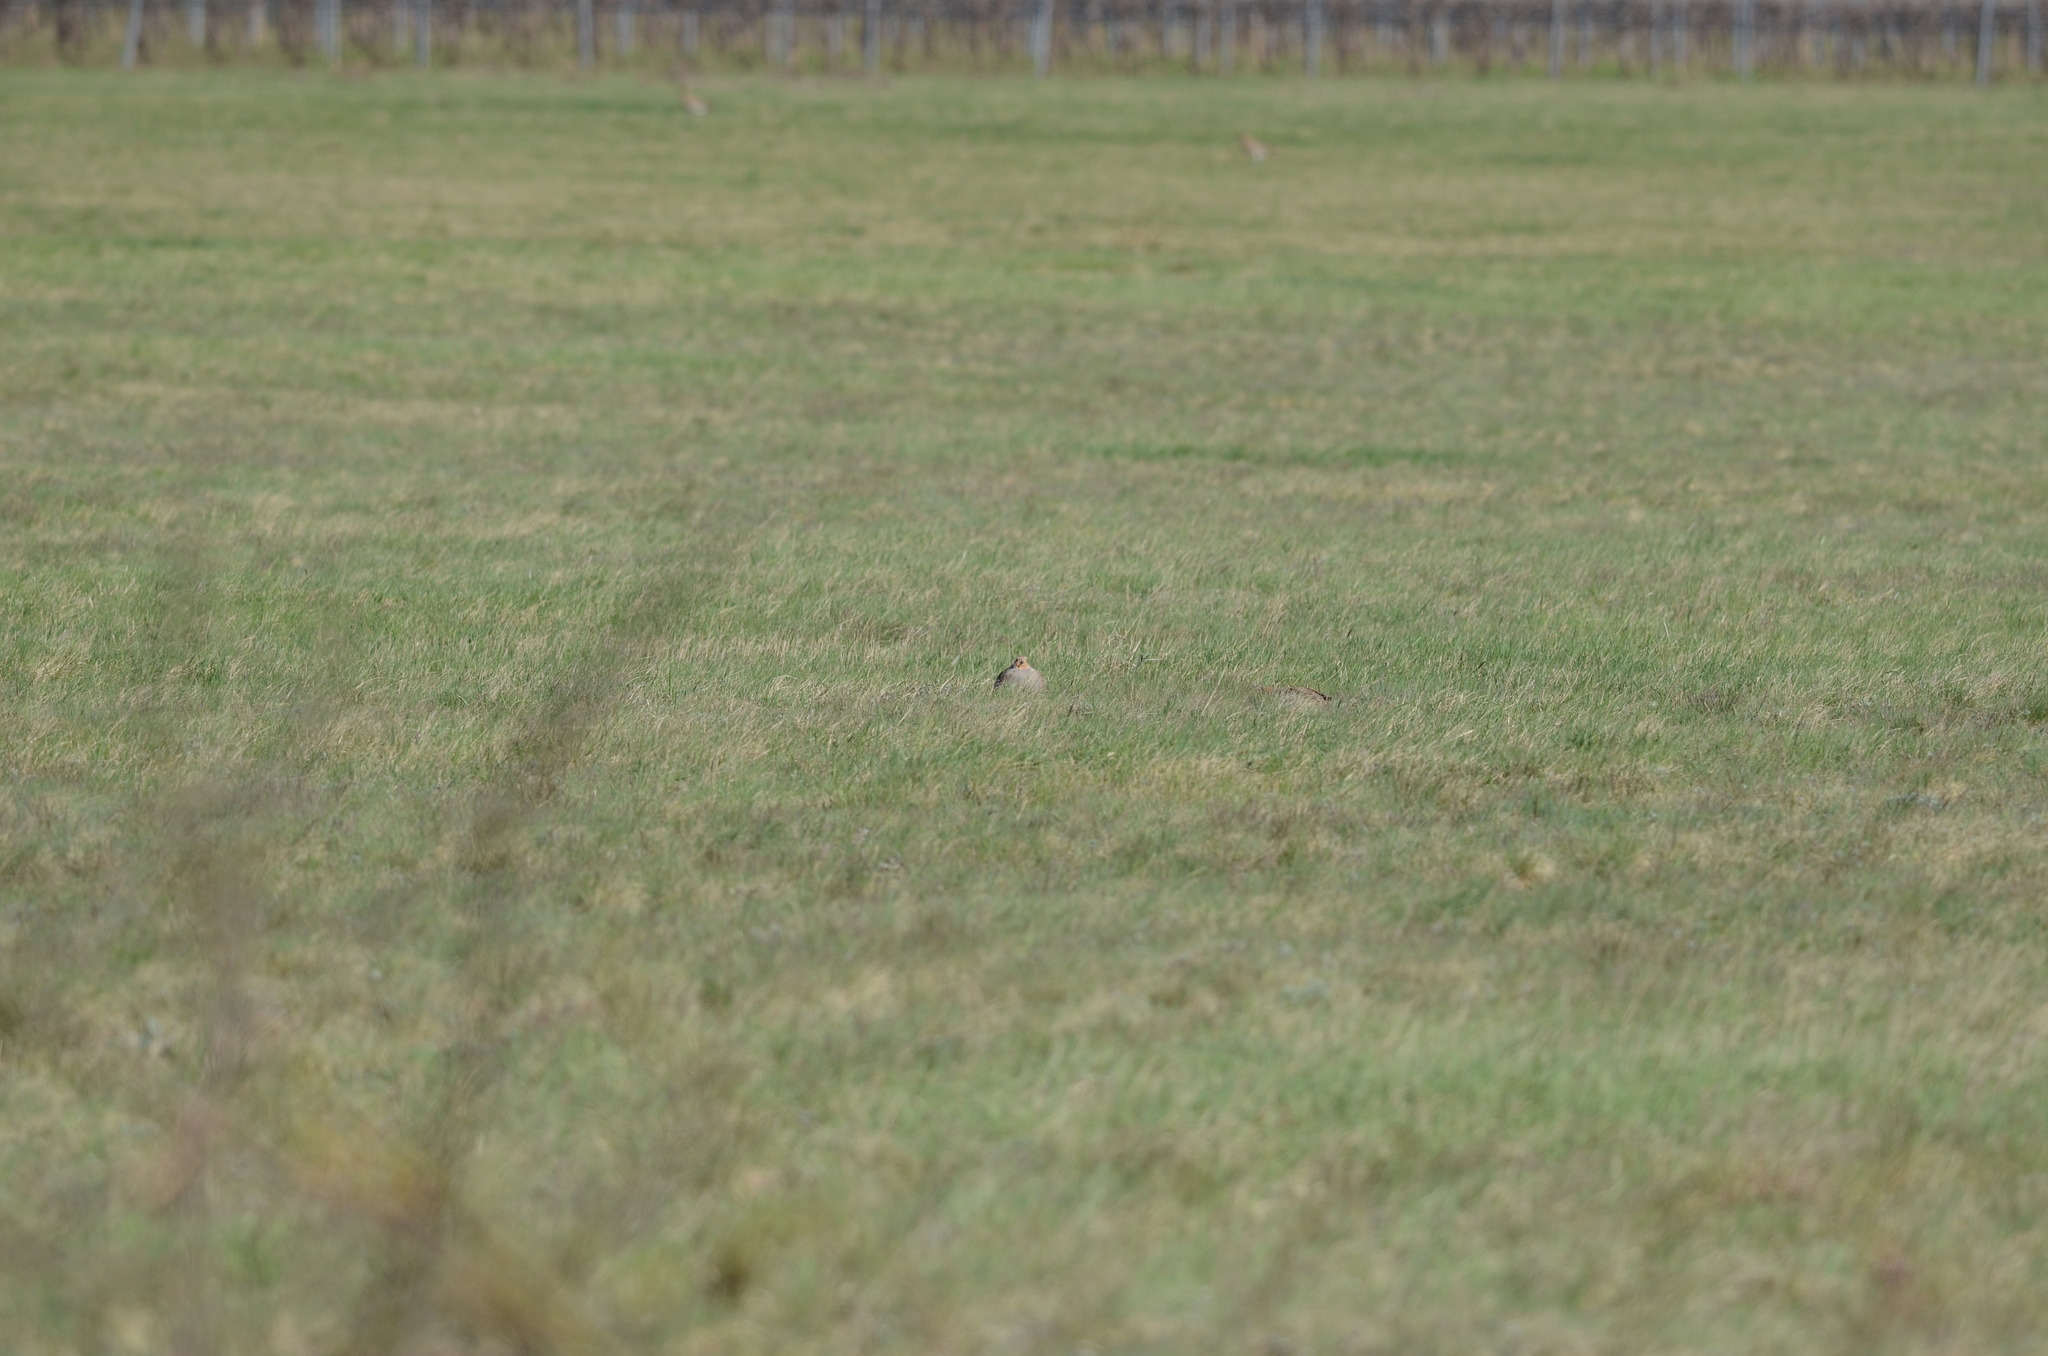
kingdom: Animalia
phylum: Chordata
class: Aves
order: Galliformes
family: Phasianidae
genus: Perdix
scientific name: Perdix perdix
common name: Grey partridge
